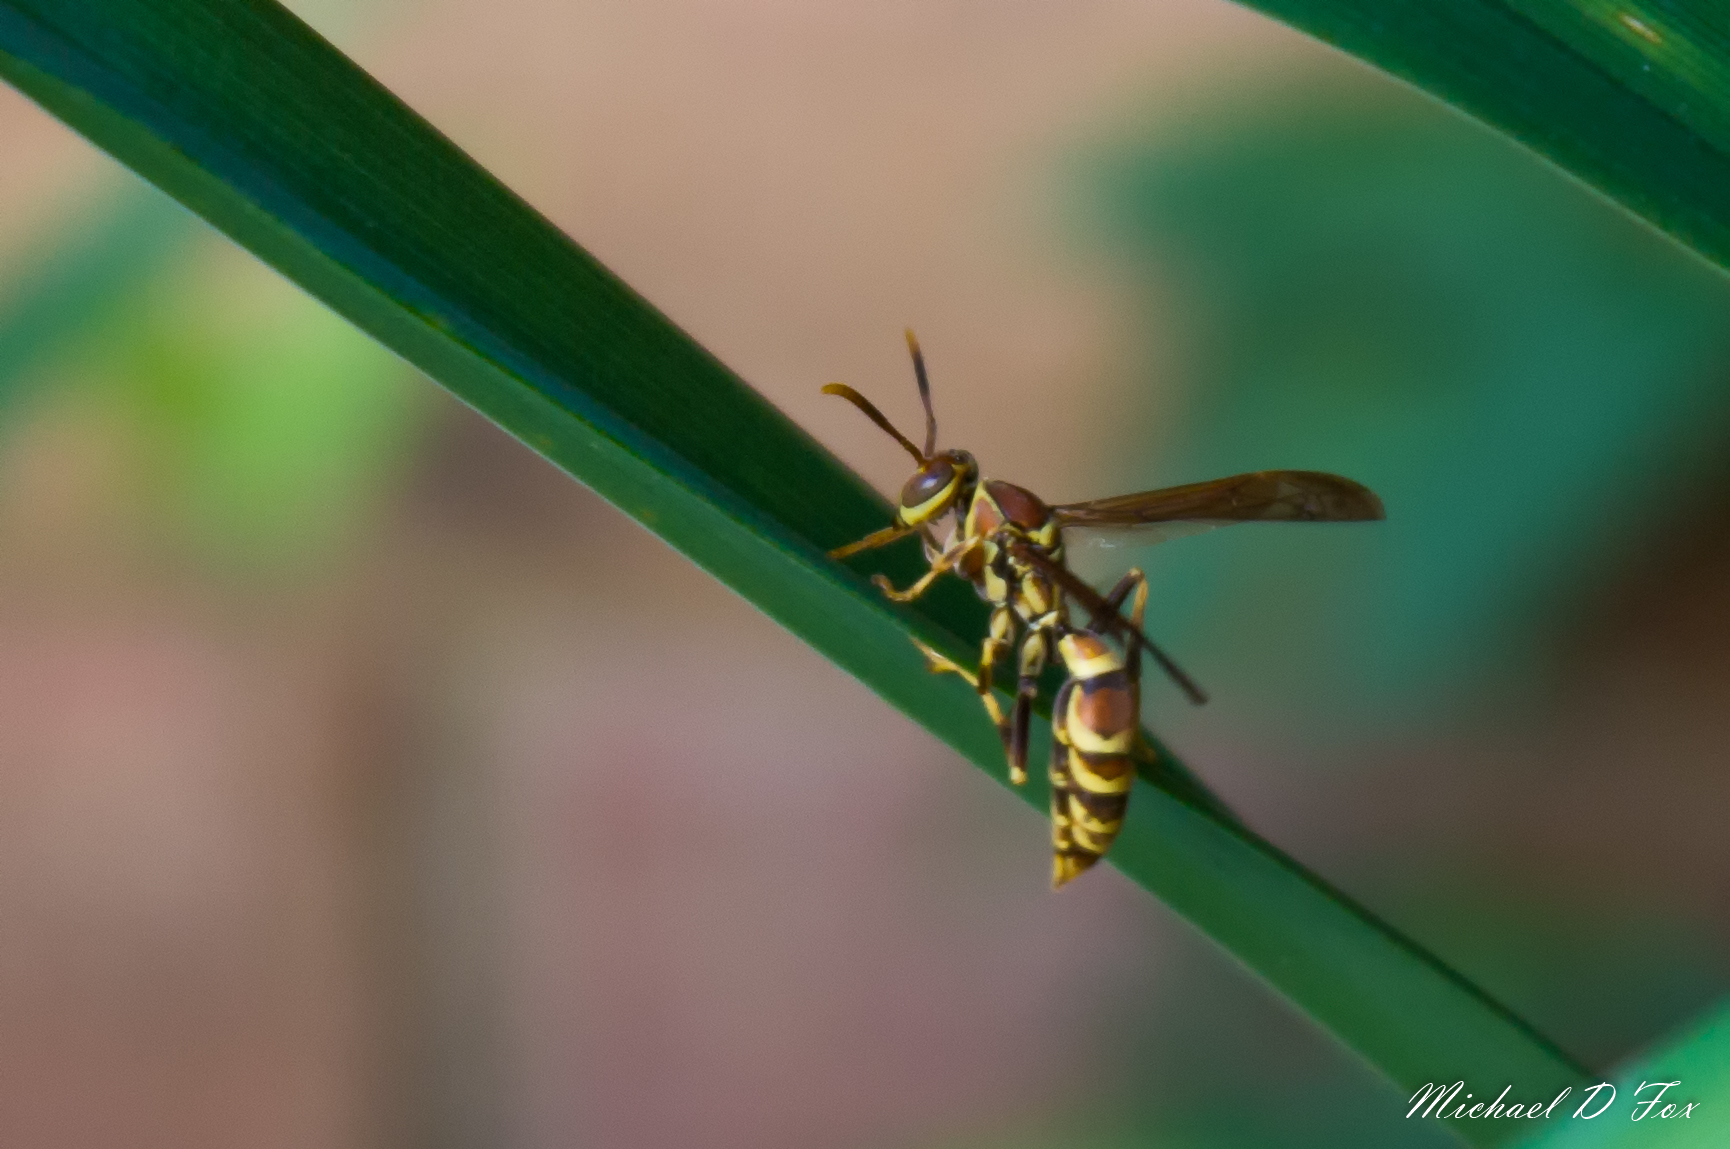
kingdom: Animalia
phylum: Arthropoda
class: Insecta
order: Hymenoptera
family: Eumenidae
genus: Polistes
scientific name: Polistes exclamans
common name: Paper wasp
